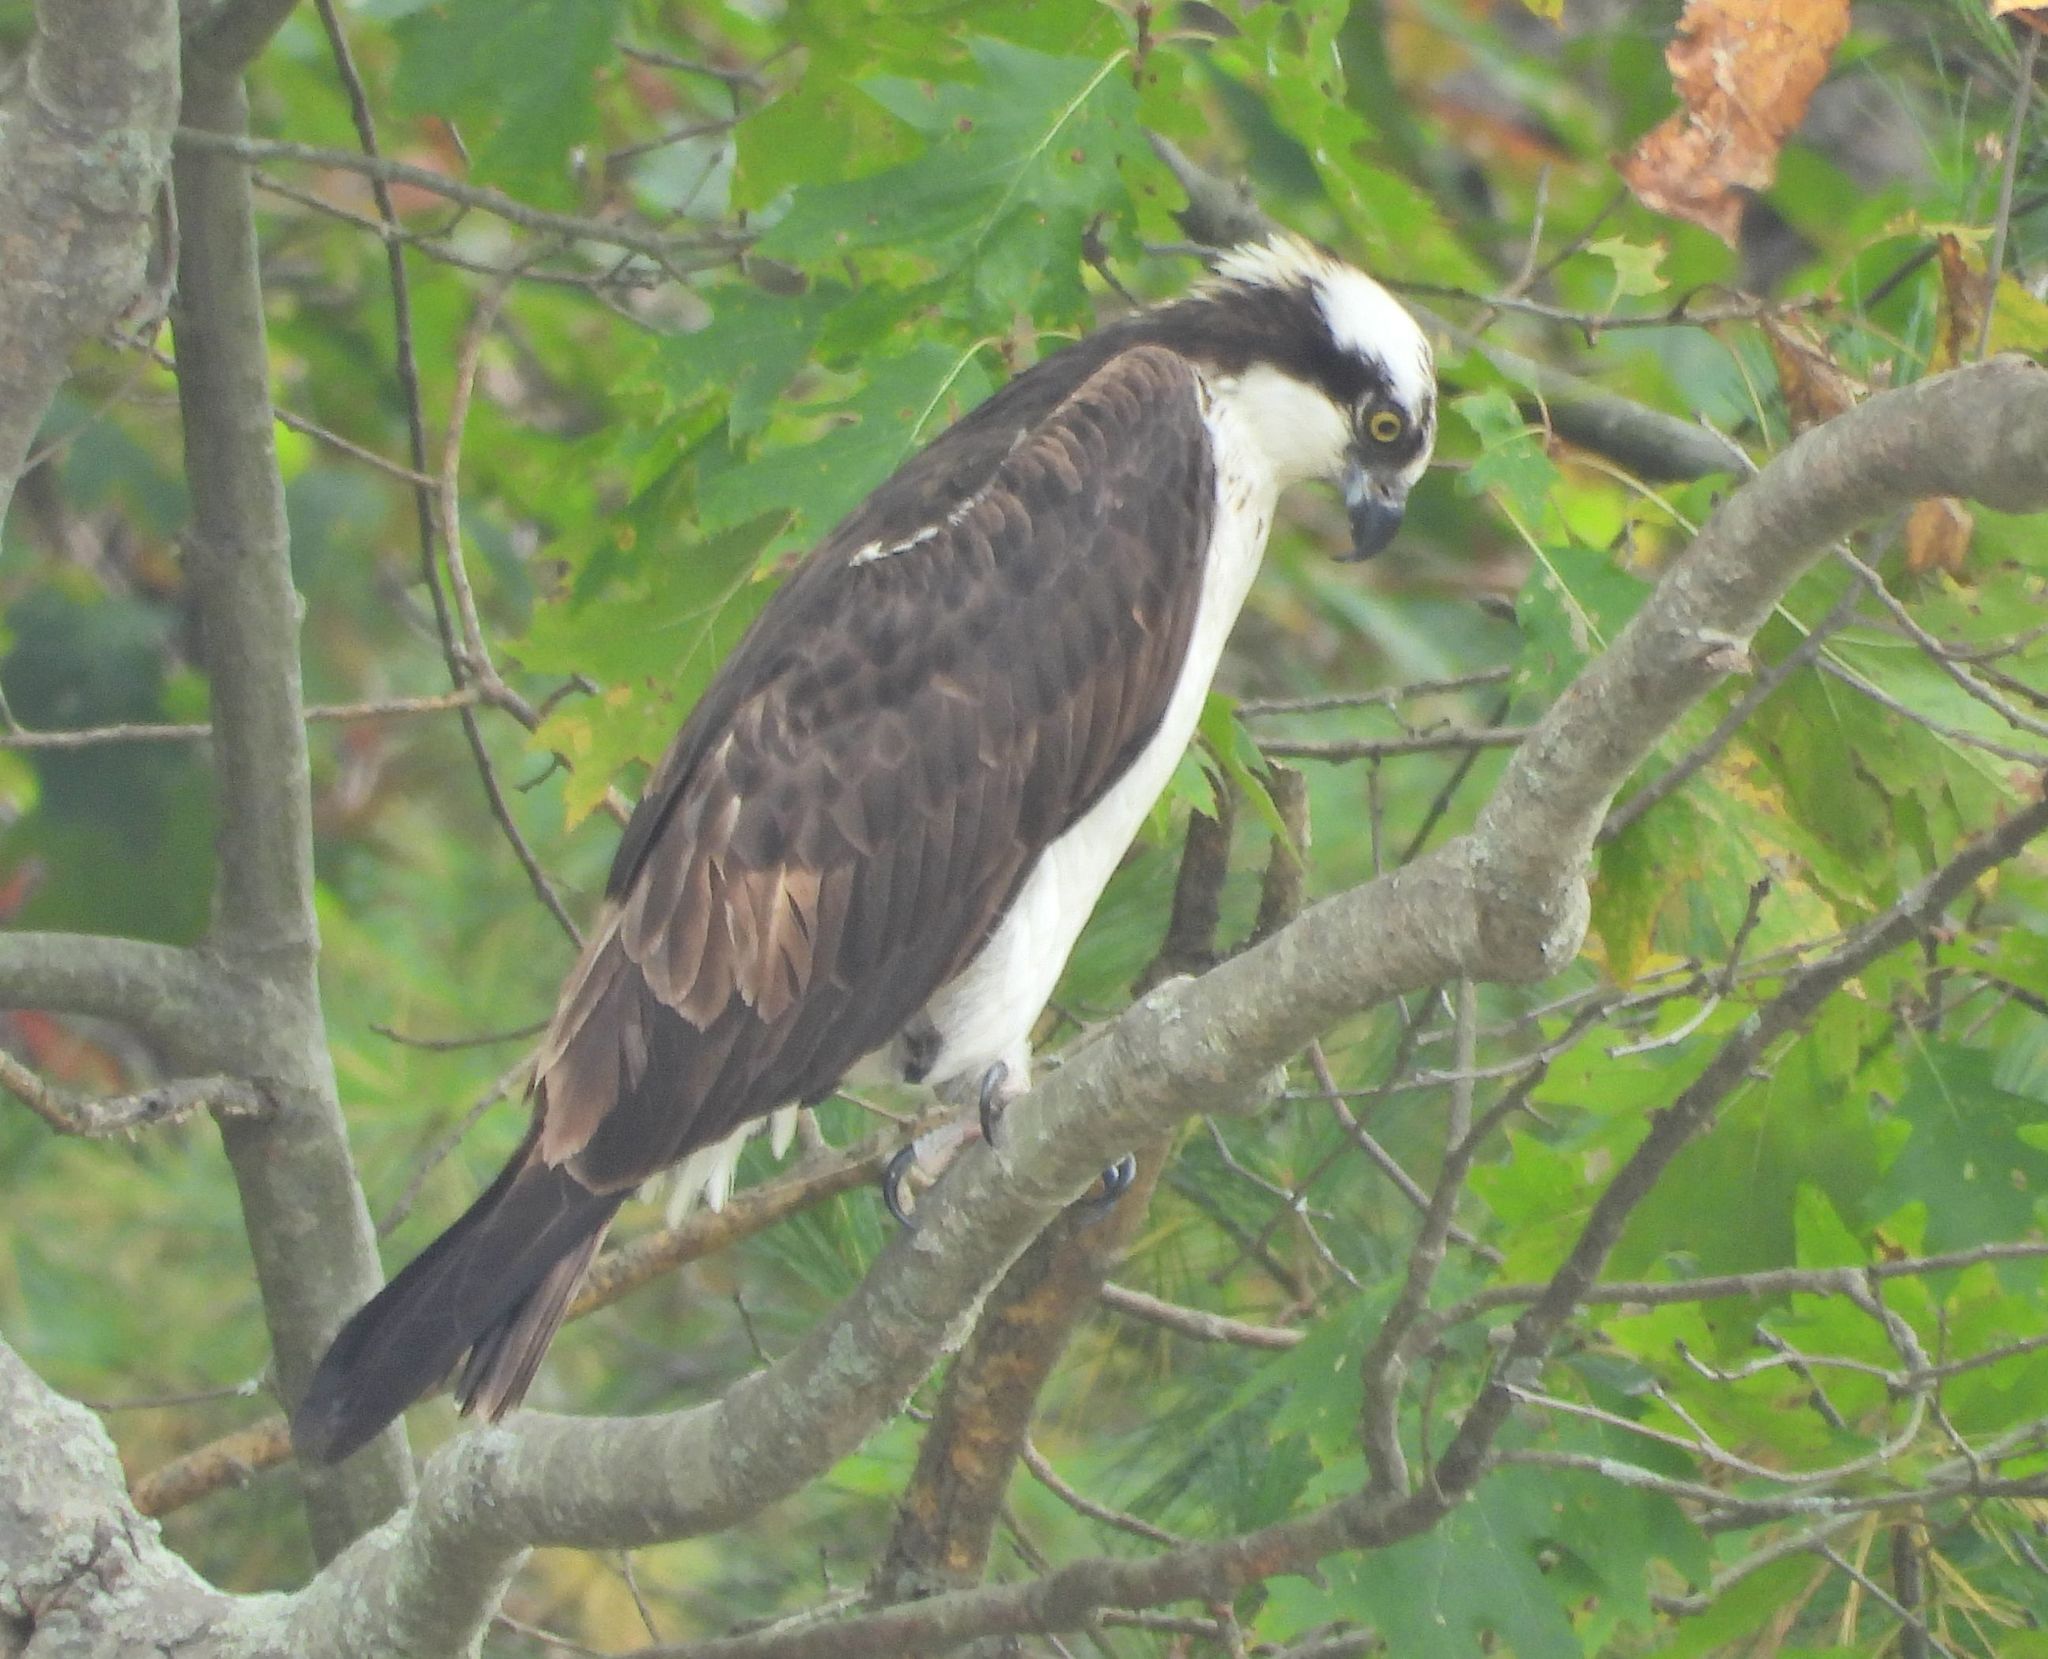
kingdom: Animalia
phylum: Chordata
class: Aves
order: Accipitriformes
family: Pandionidae
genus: Pandion
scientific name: Pandion haliaetus
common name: Osprey
